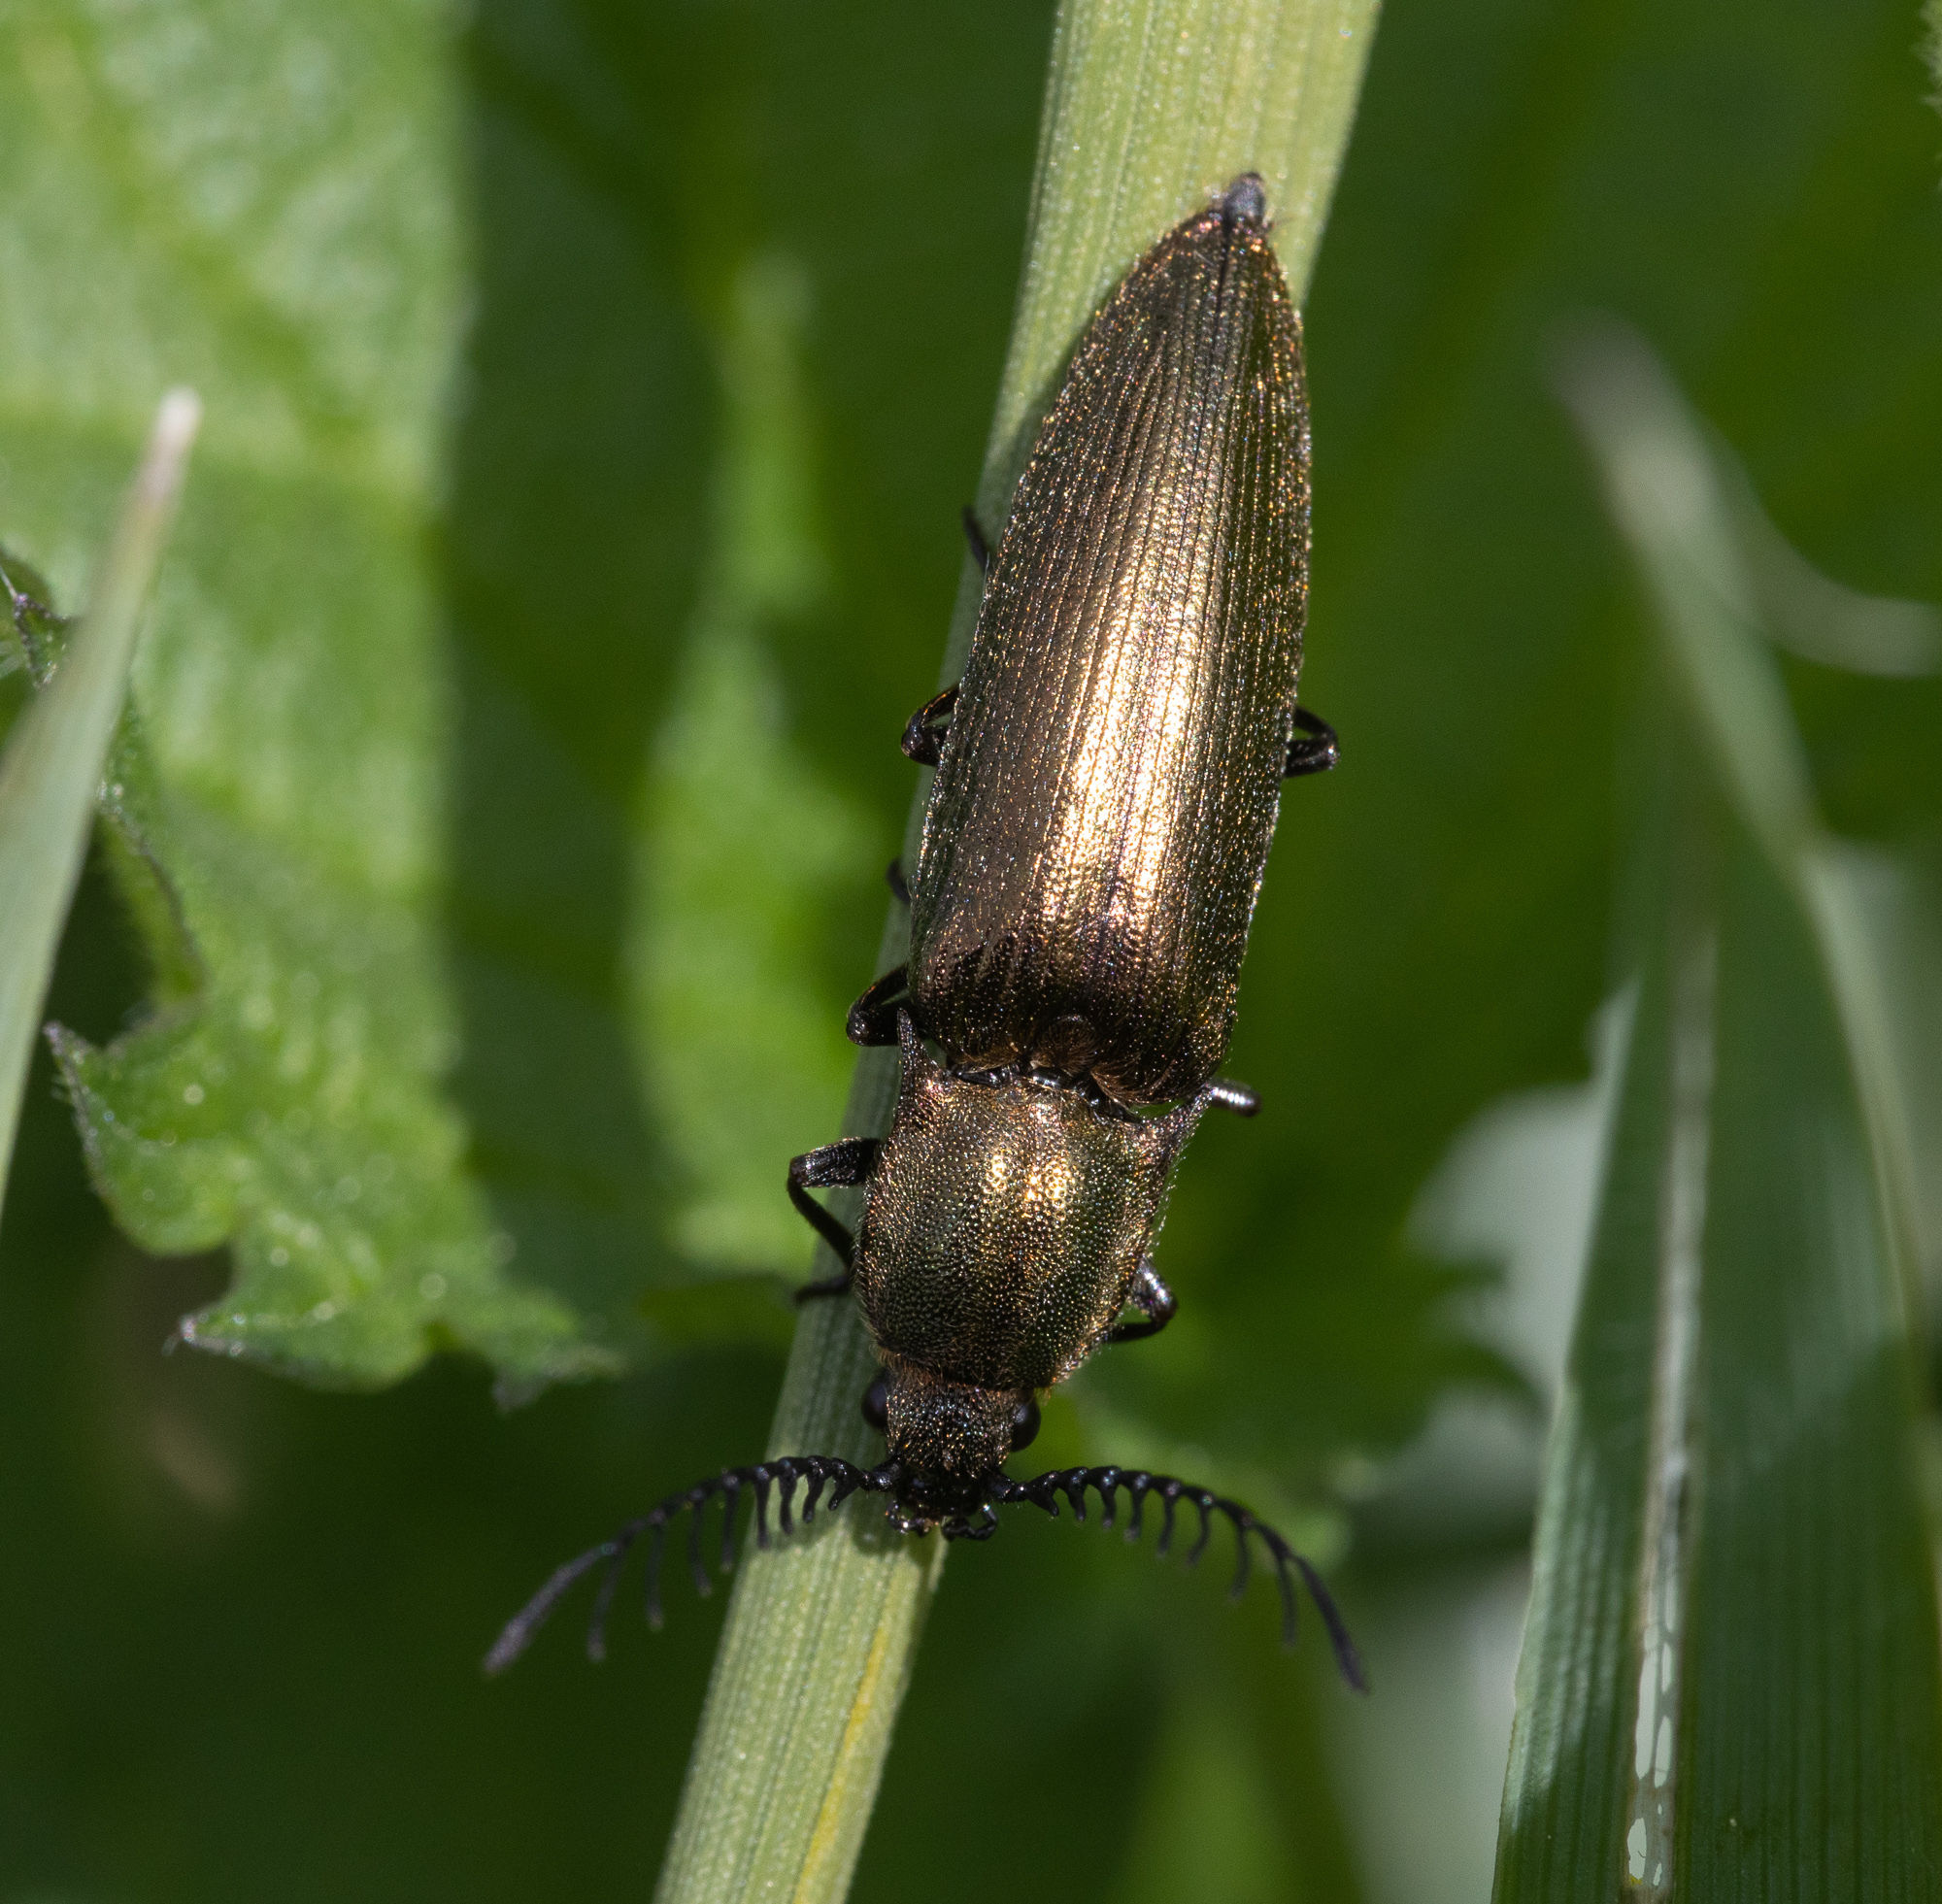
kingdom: Animalia
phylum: Arthropoda
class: Insecta
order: Coleoptera
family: Elateridae
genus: Ctenicera
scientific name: Ctenicera pectinicornis
